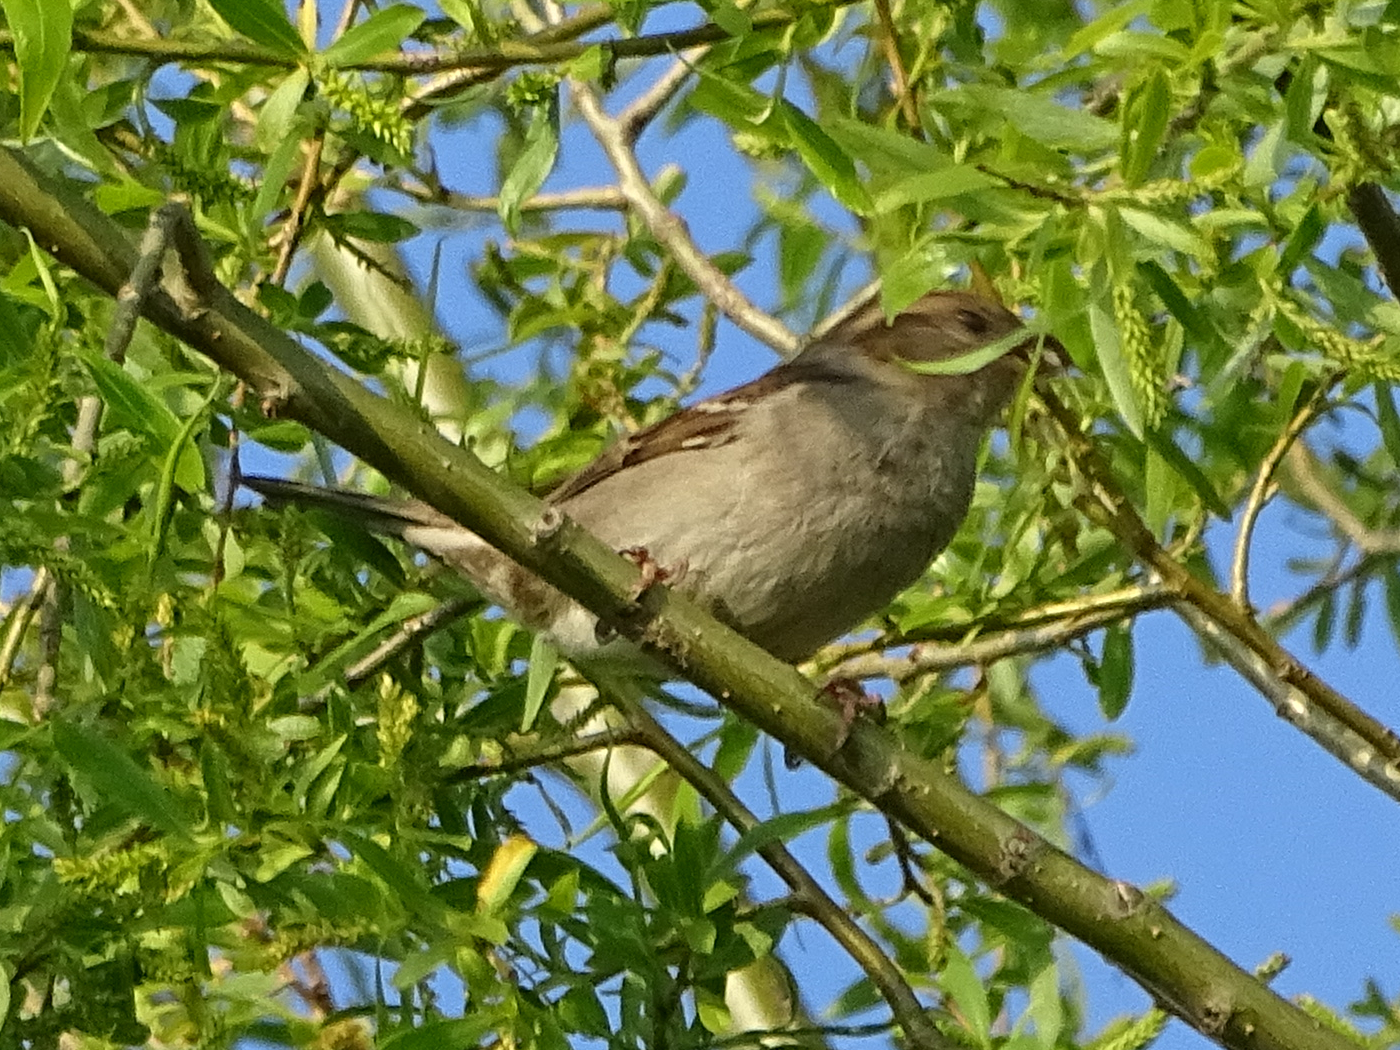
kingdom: Animalia
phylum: Chordata
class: Aves
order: Passeriformes
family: Passeridae
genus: Passer
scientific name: Passer domesticus
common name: House sparrow
